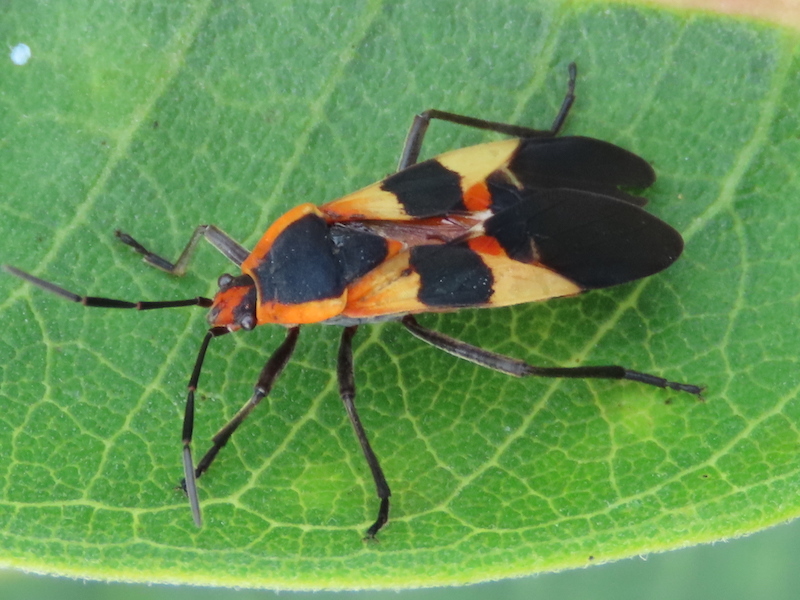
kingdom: Animalia
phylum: Arthropoda
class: Insecta
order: Hemiptera
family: Lygaeidae
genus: Oncopeltus
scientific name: Oncopeltus fasciatus
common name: Large milkweed bug
